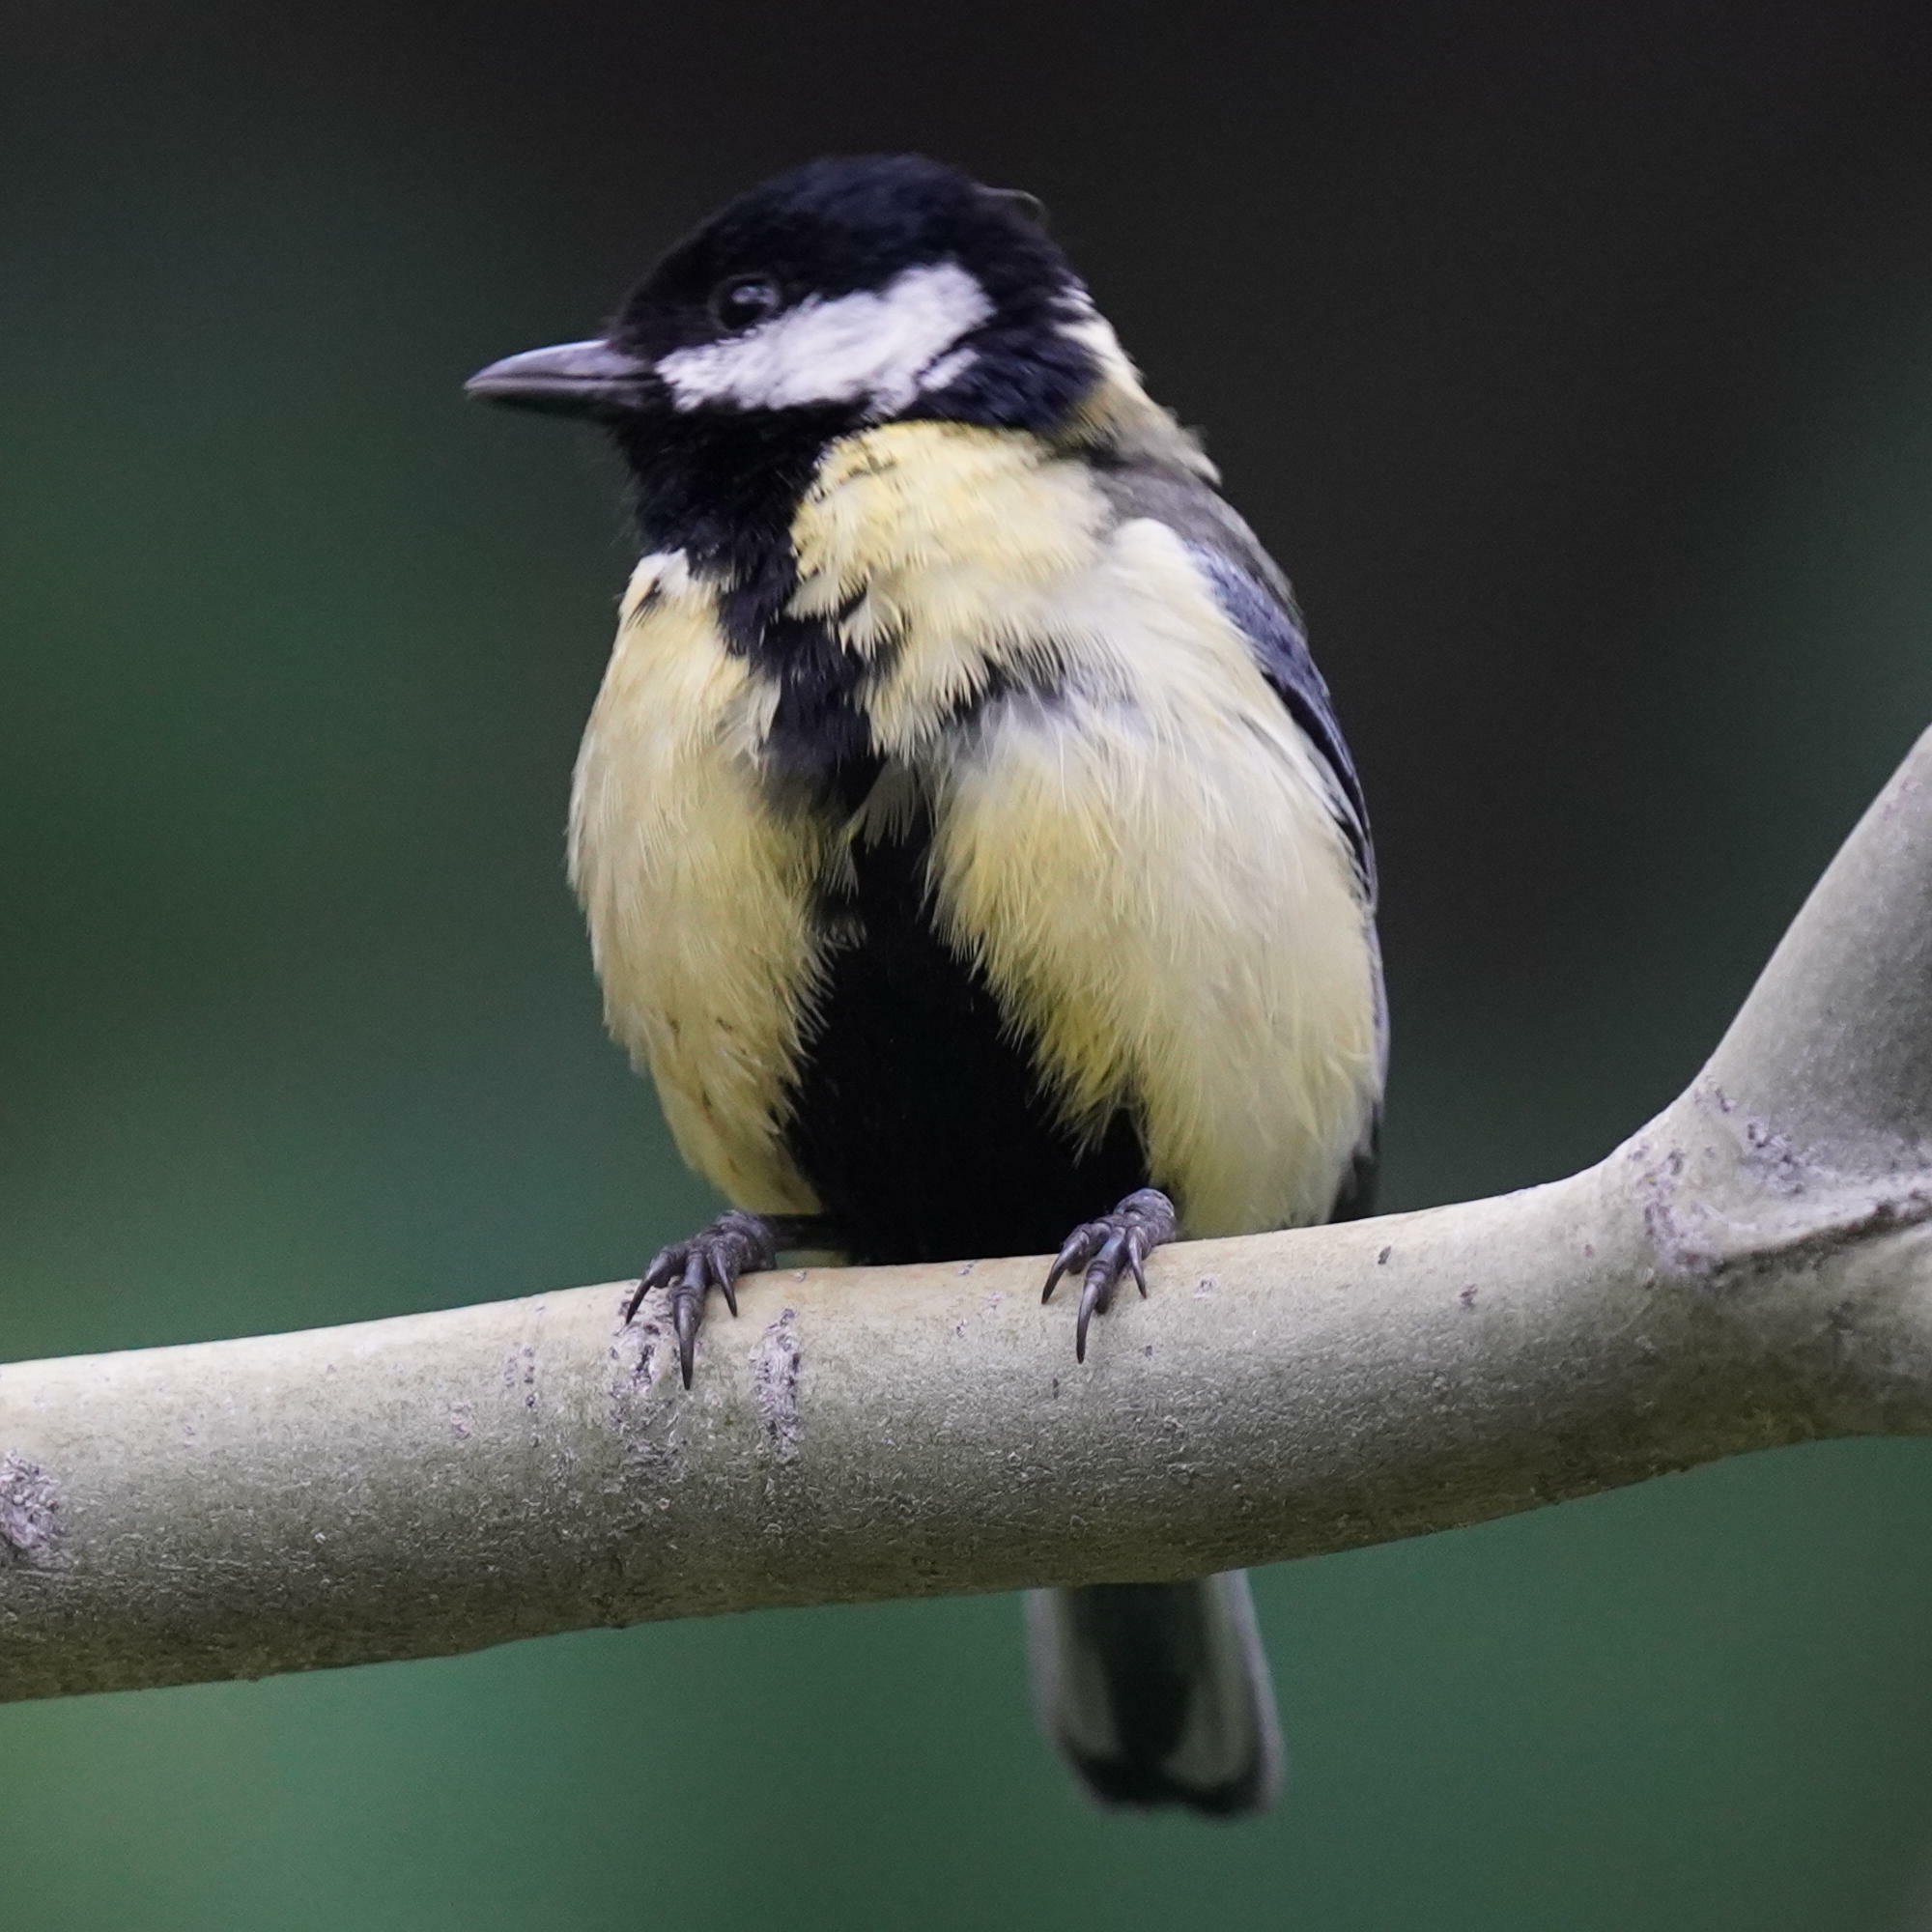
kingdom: Animalia
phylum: Chordata
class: Aves
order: Passeriformes
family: Paridae
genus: Parus
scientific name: Parus major
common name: Great tit
